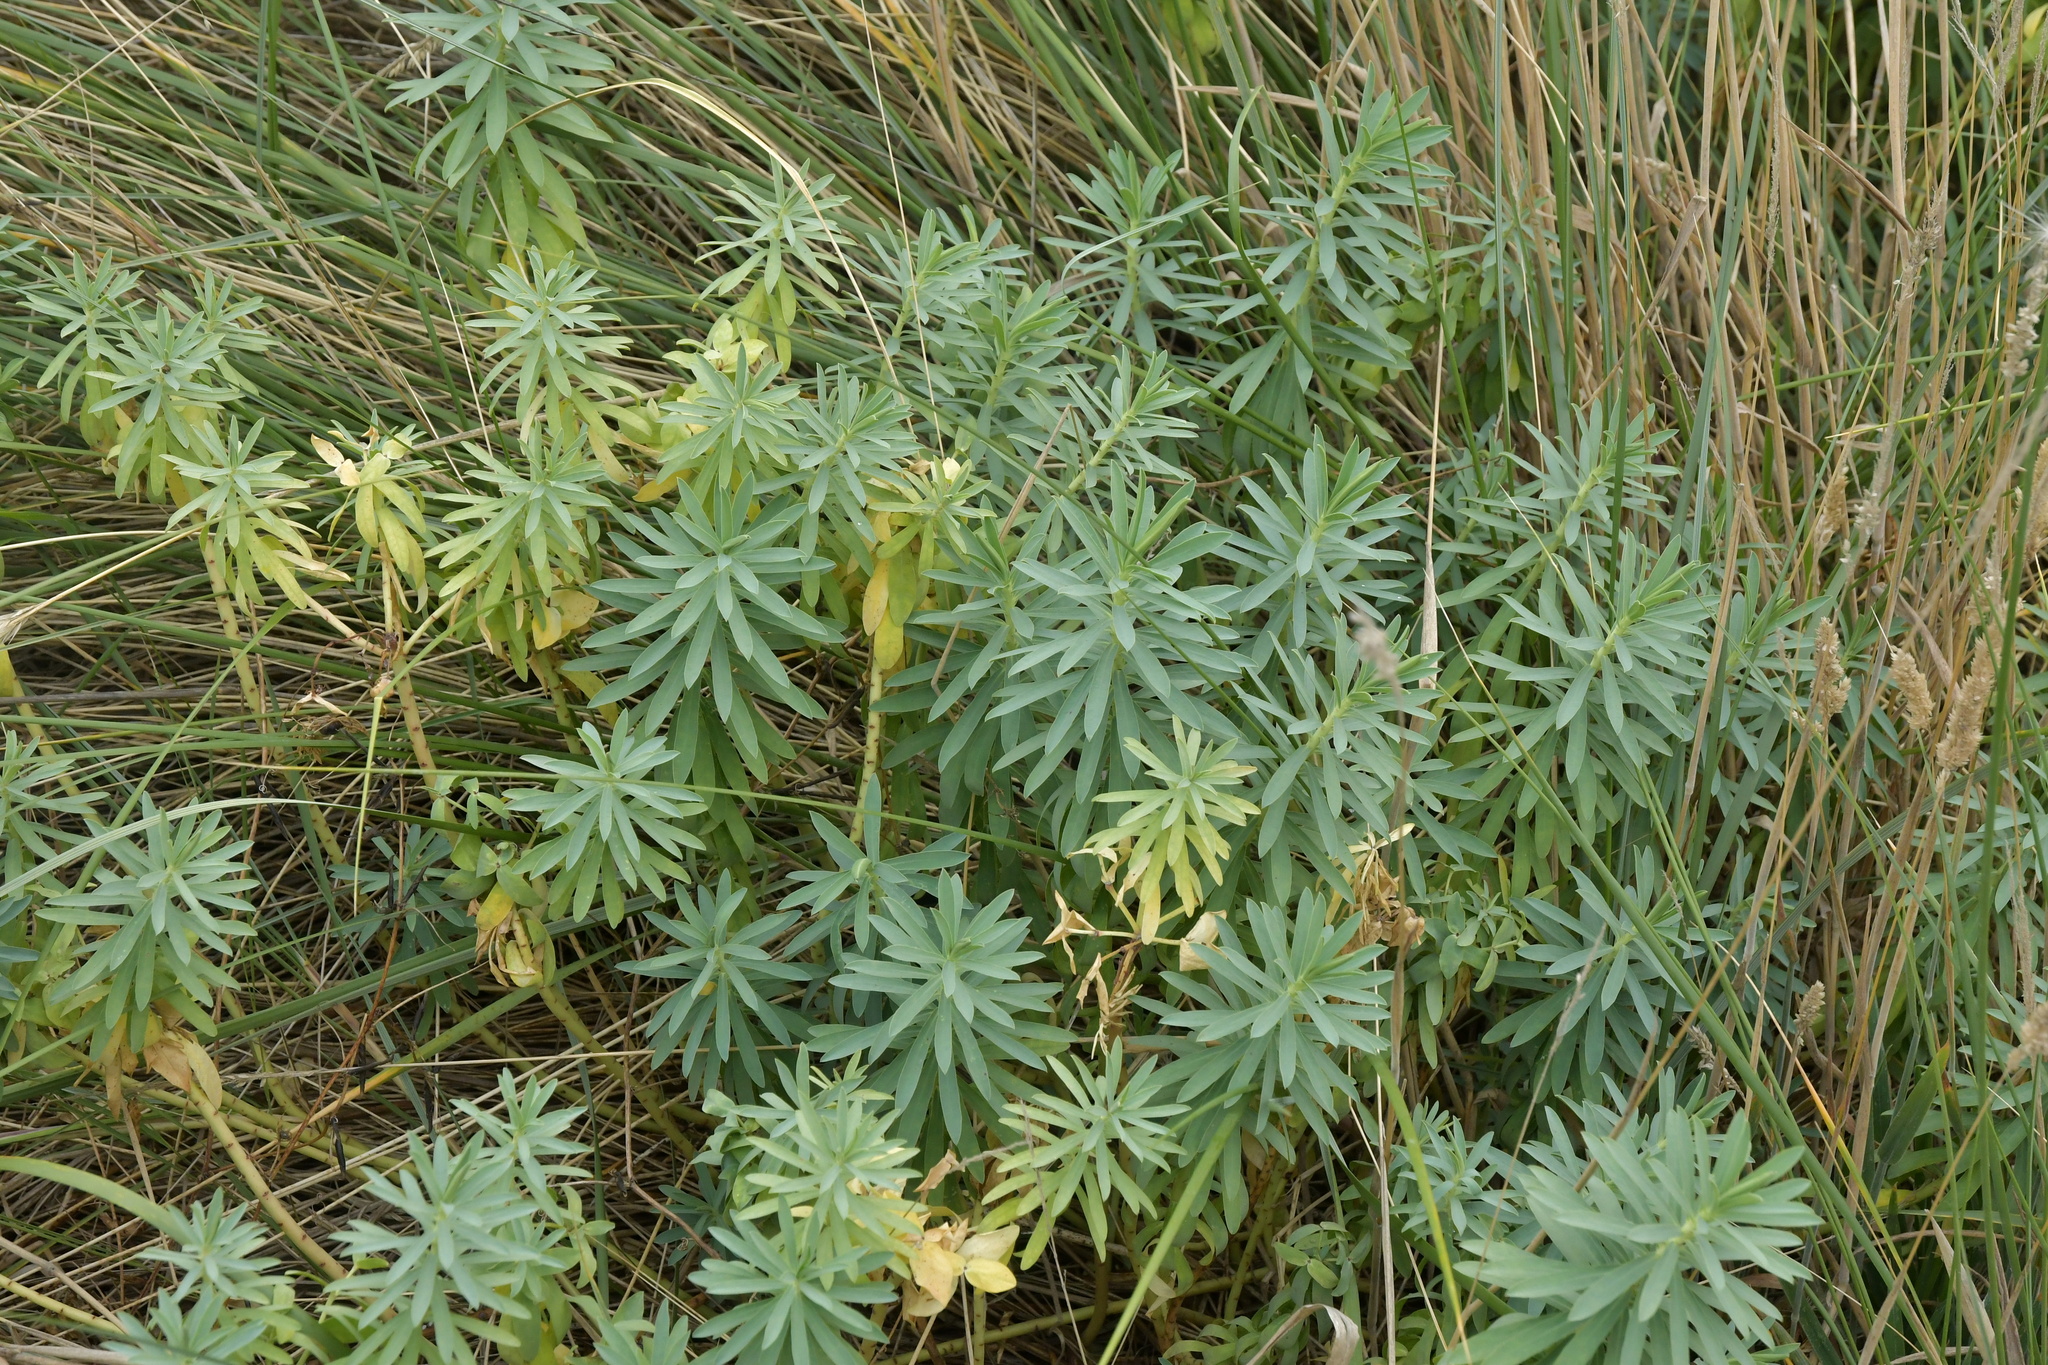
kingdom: Plantae
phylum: Tracheophyta
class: Magnoliopsida
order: Malpighiales
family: Euphorbiaceae
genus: Euphorbia
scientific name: Euphorbia glauca
